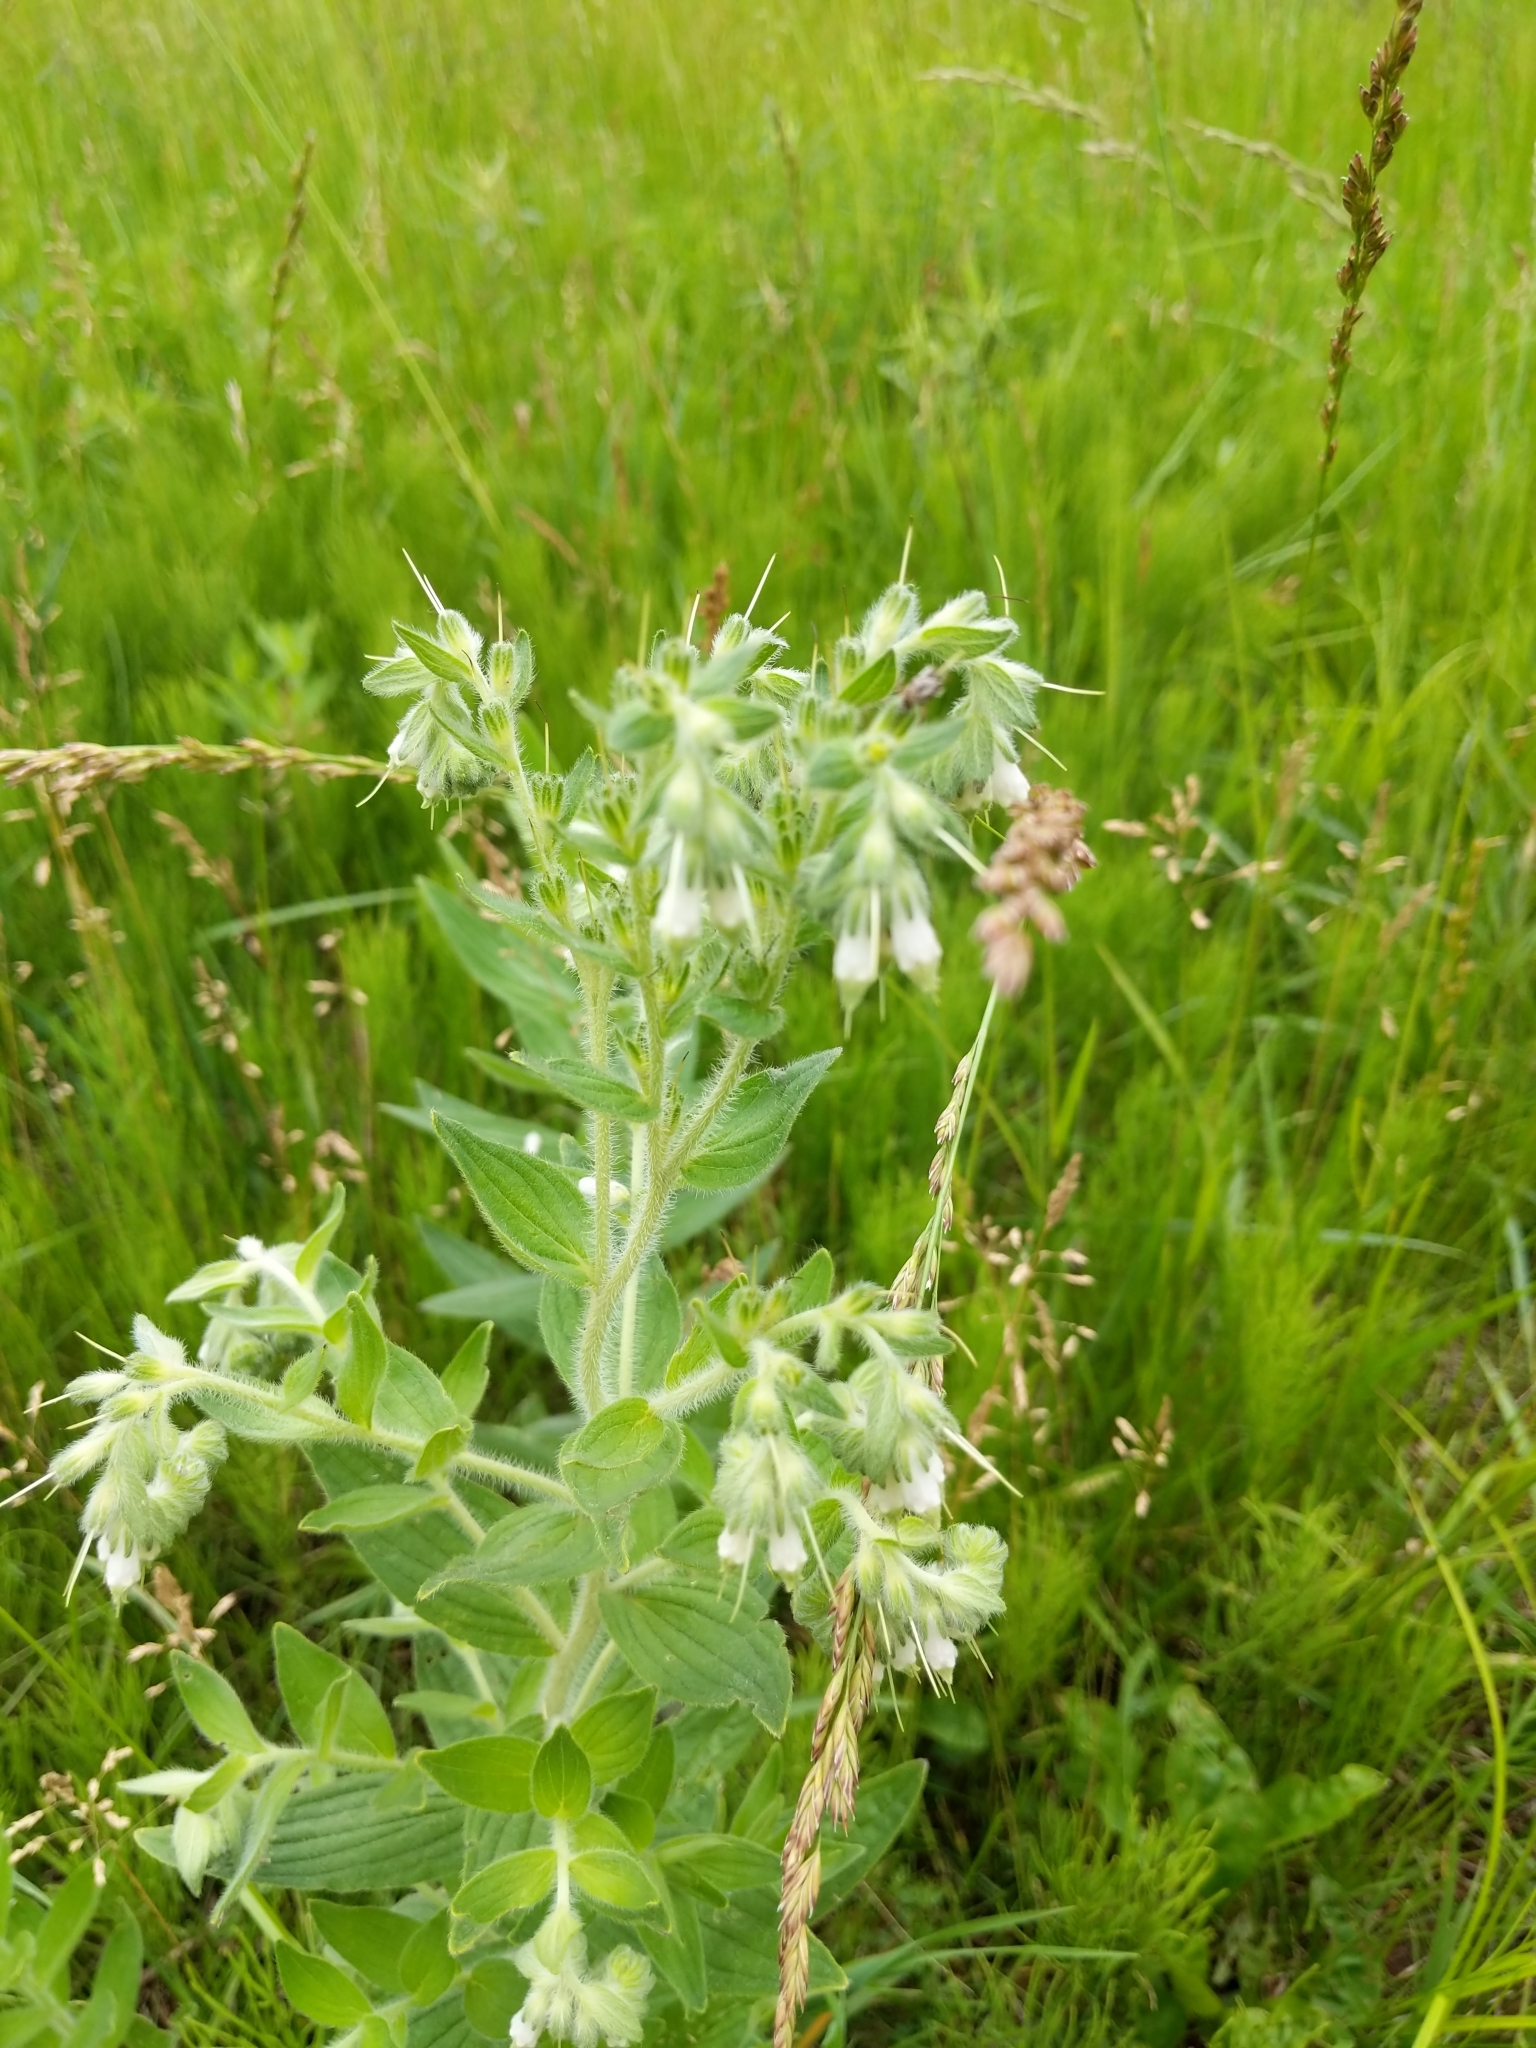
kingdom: Plantae
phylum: Tracheophyta
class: Magnoliopsida
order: Boraginales
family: Boraginaceae
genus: Lithospermum
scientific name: Lithospermum parviflorum
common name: Hairy false gromwell
